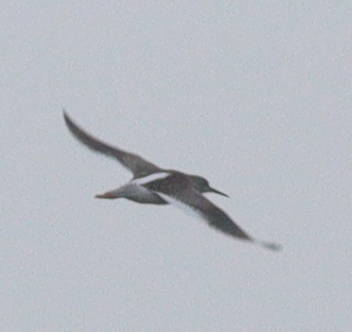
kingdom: Animalia
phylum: Chordata
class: Aves
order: Charadriiformes
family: Scolopacidae
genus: Tringa
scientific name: Tringa totanus
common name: Common redshank
